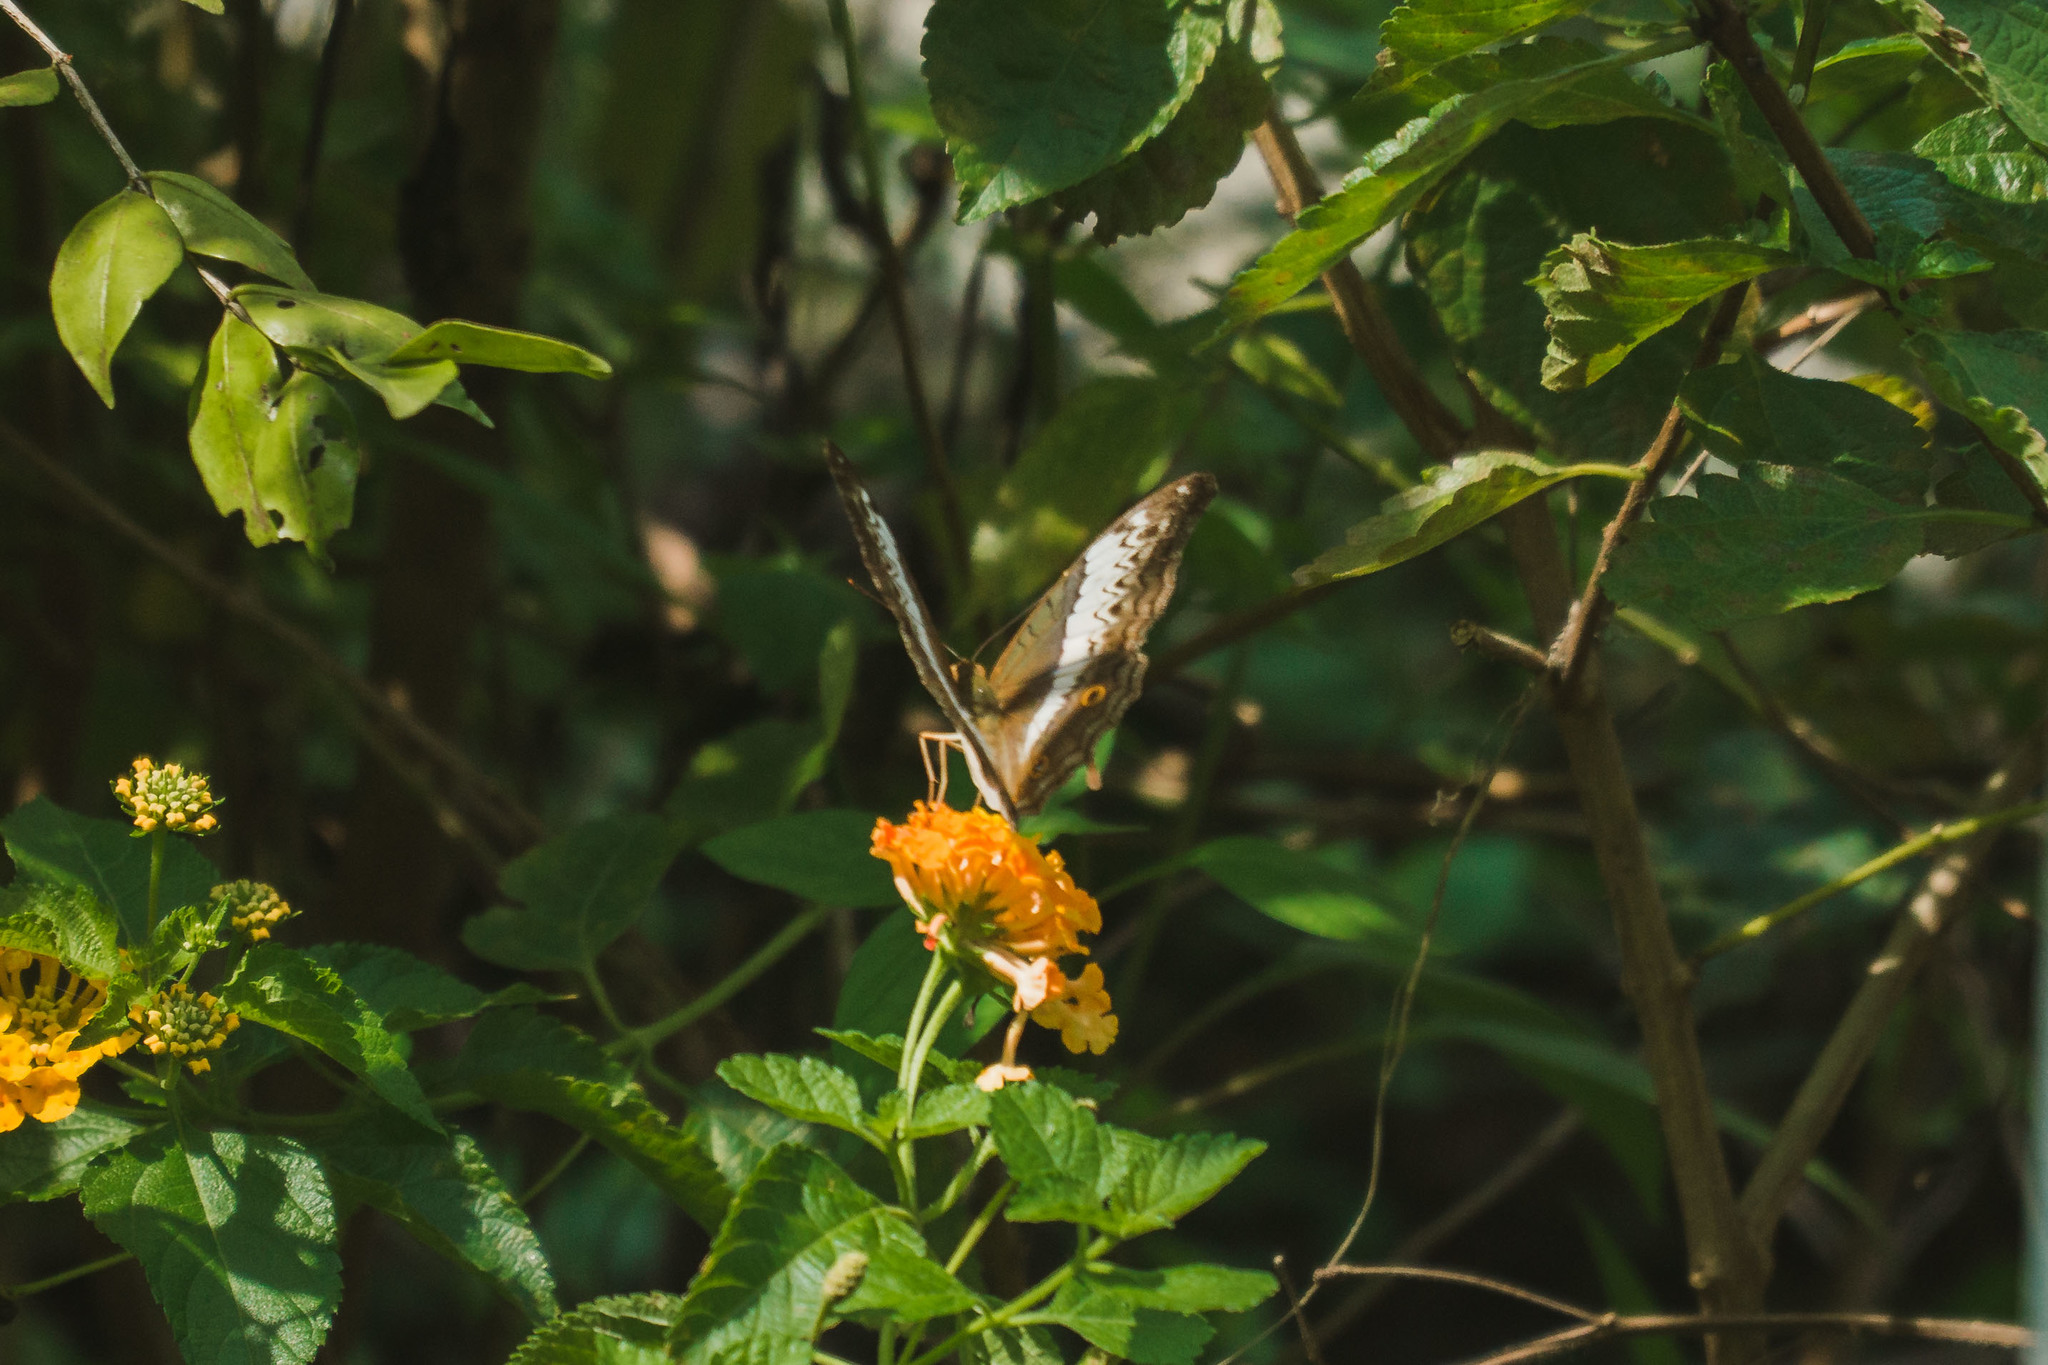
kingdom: Animalia
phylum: Arthropoda
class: Insecta
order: Lepidoptera
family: Nymphalidae
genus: Vindula
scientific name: Vindula deione
